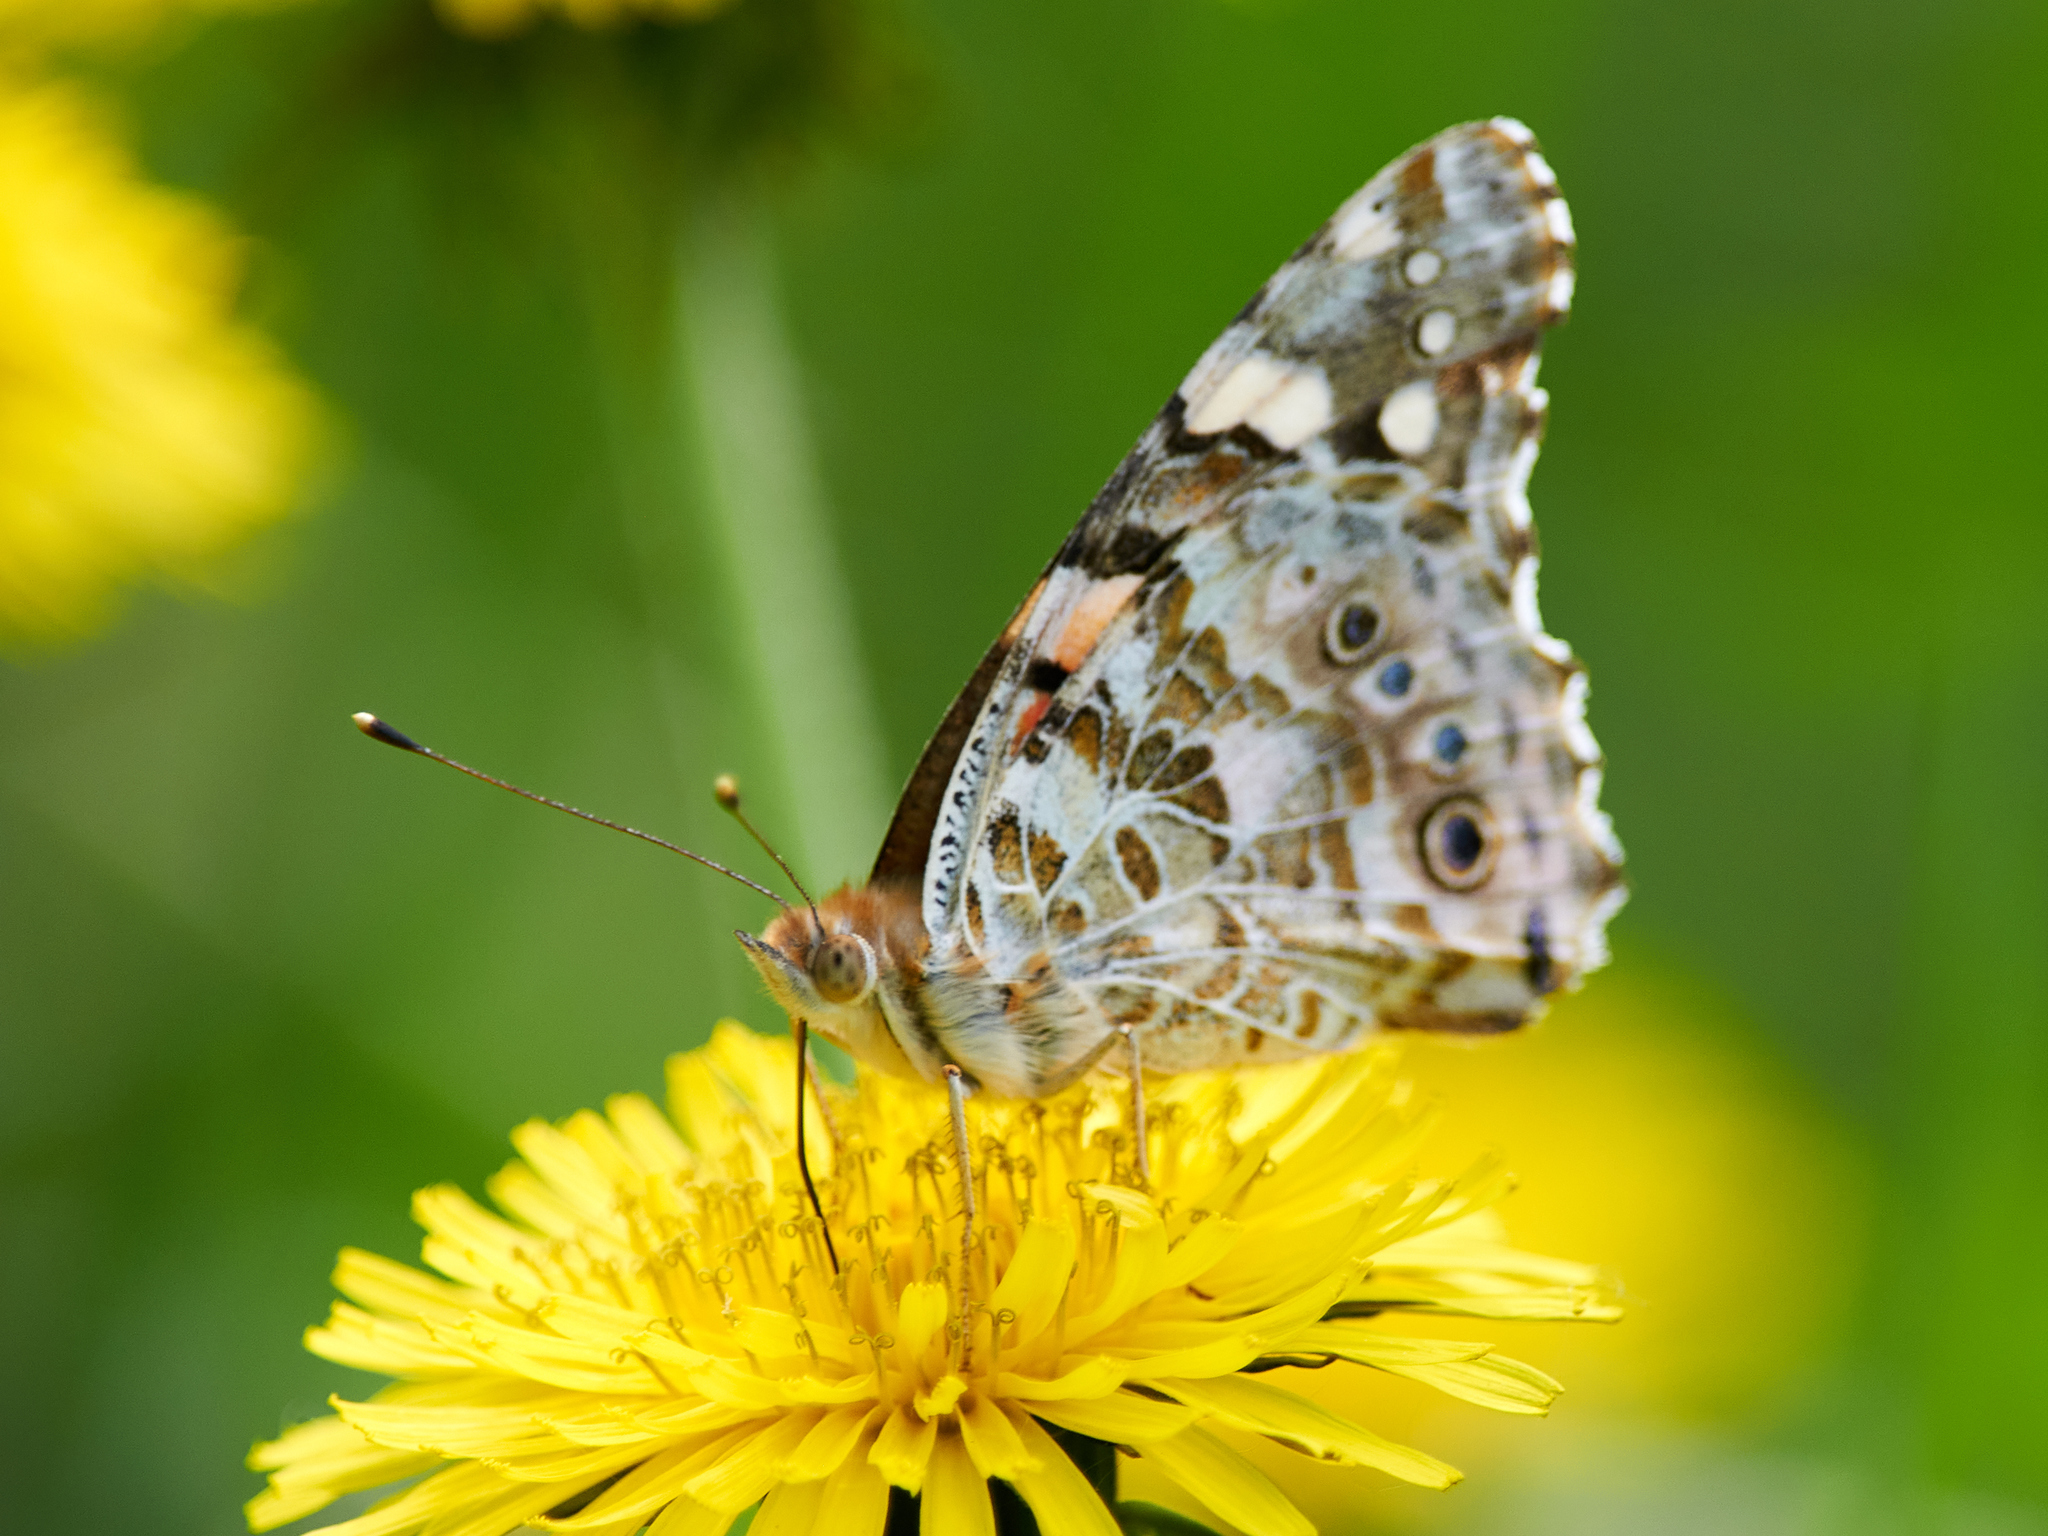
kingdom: Animalia
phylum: Arthropoda
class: Insecta
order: Lepidoptera
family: Nymphalidae
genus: Vanessa
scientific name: Vanessa cardui
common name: Painted lady
